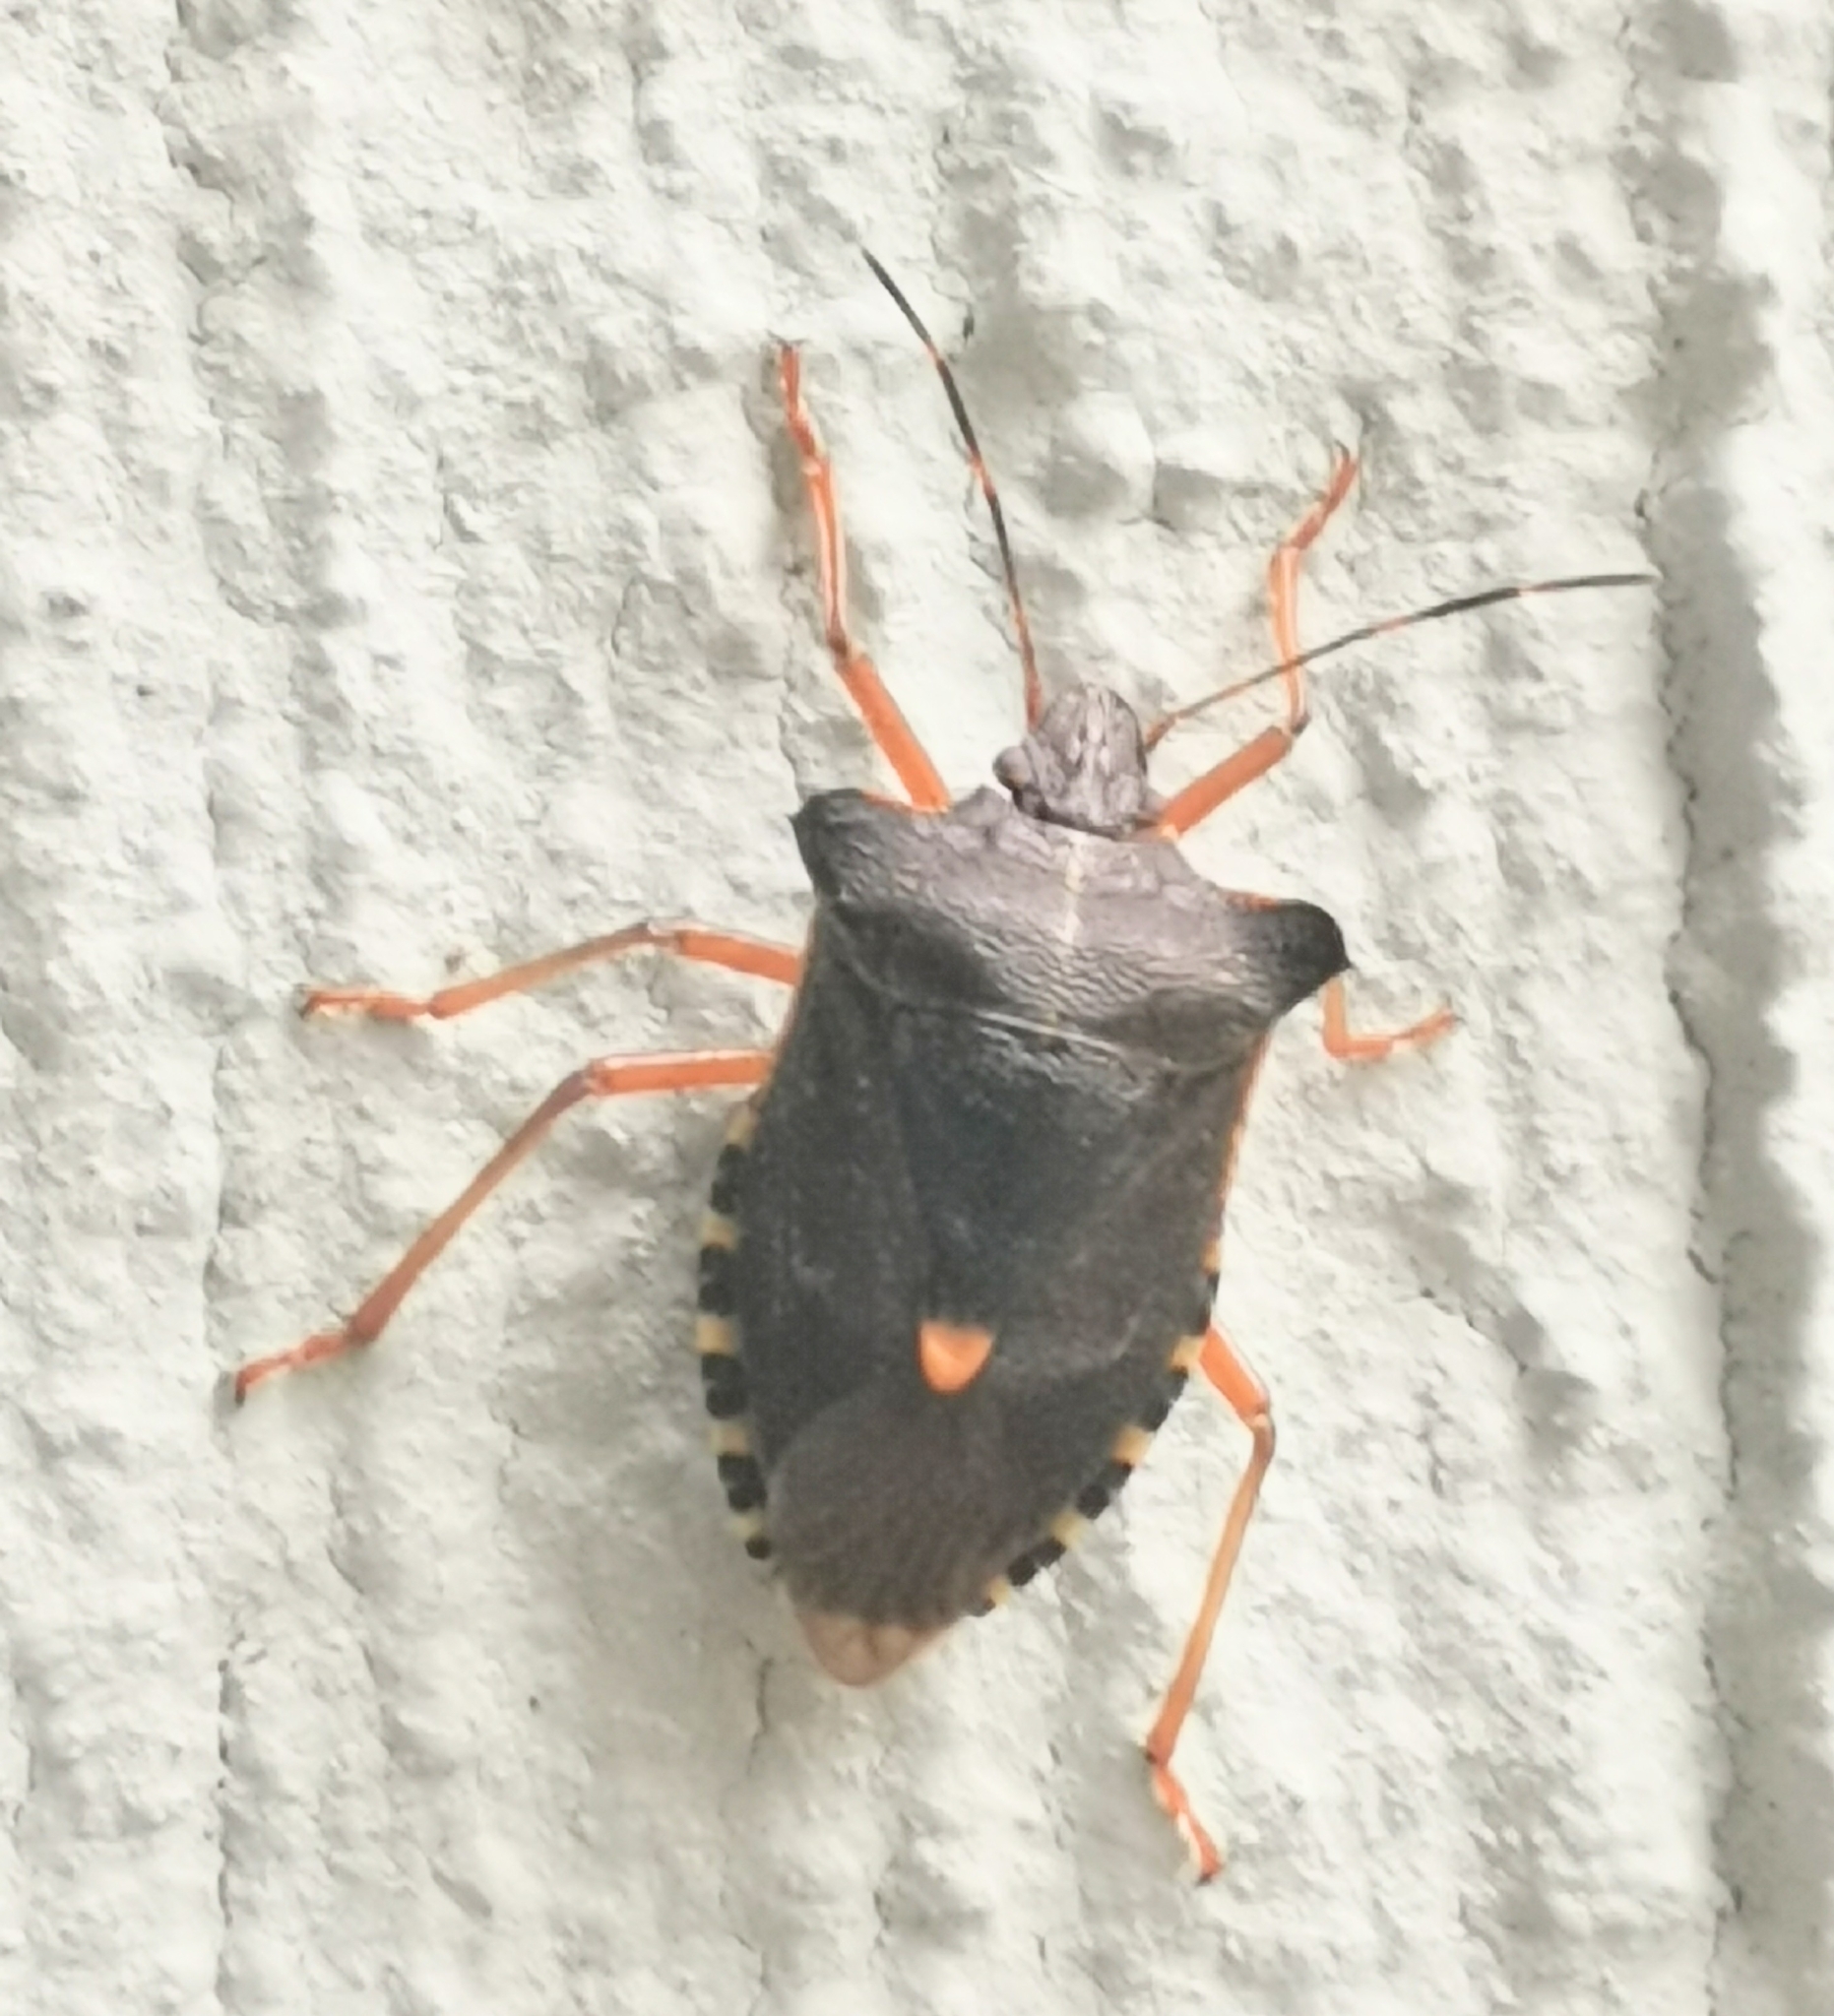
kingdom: Animalia
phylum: Arthropoda
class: Insecta
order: Hemiptera
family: Pentatomidae
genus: Pentatoma
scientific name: Pentatoma rufipes
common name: Forest bug
